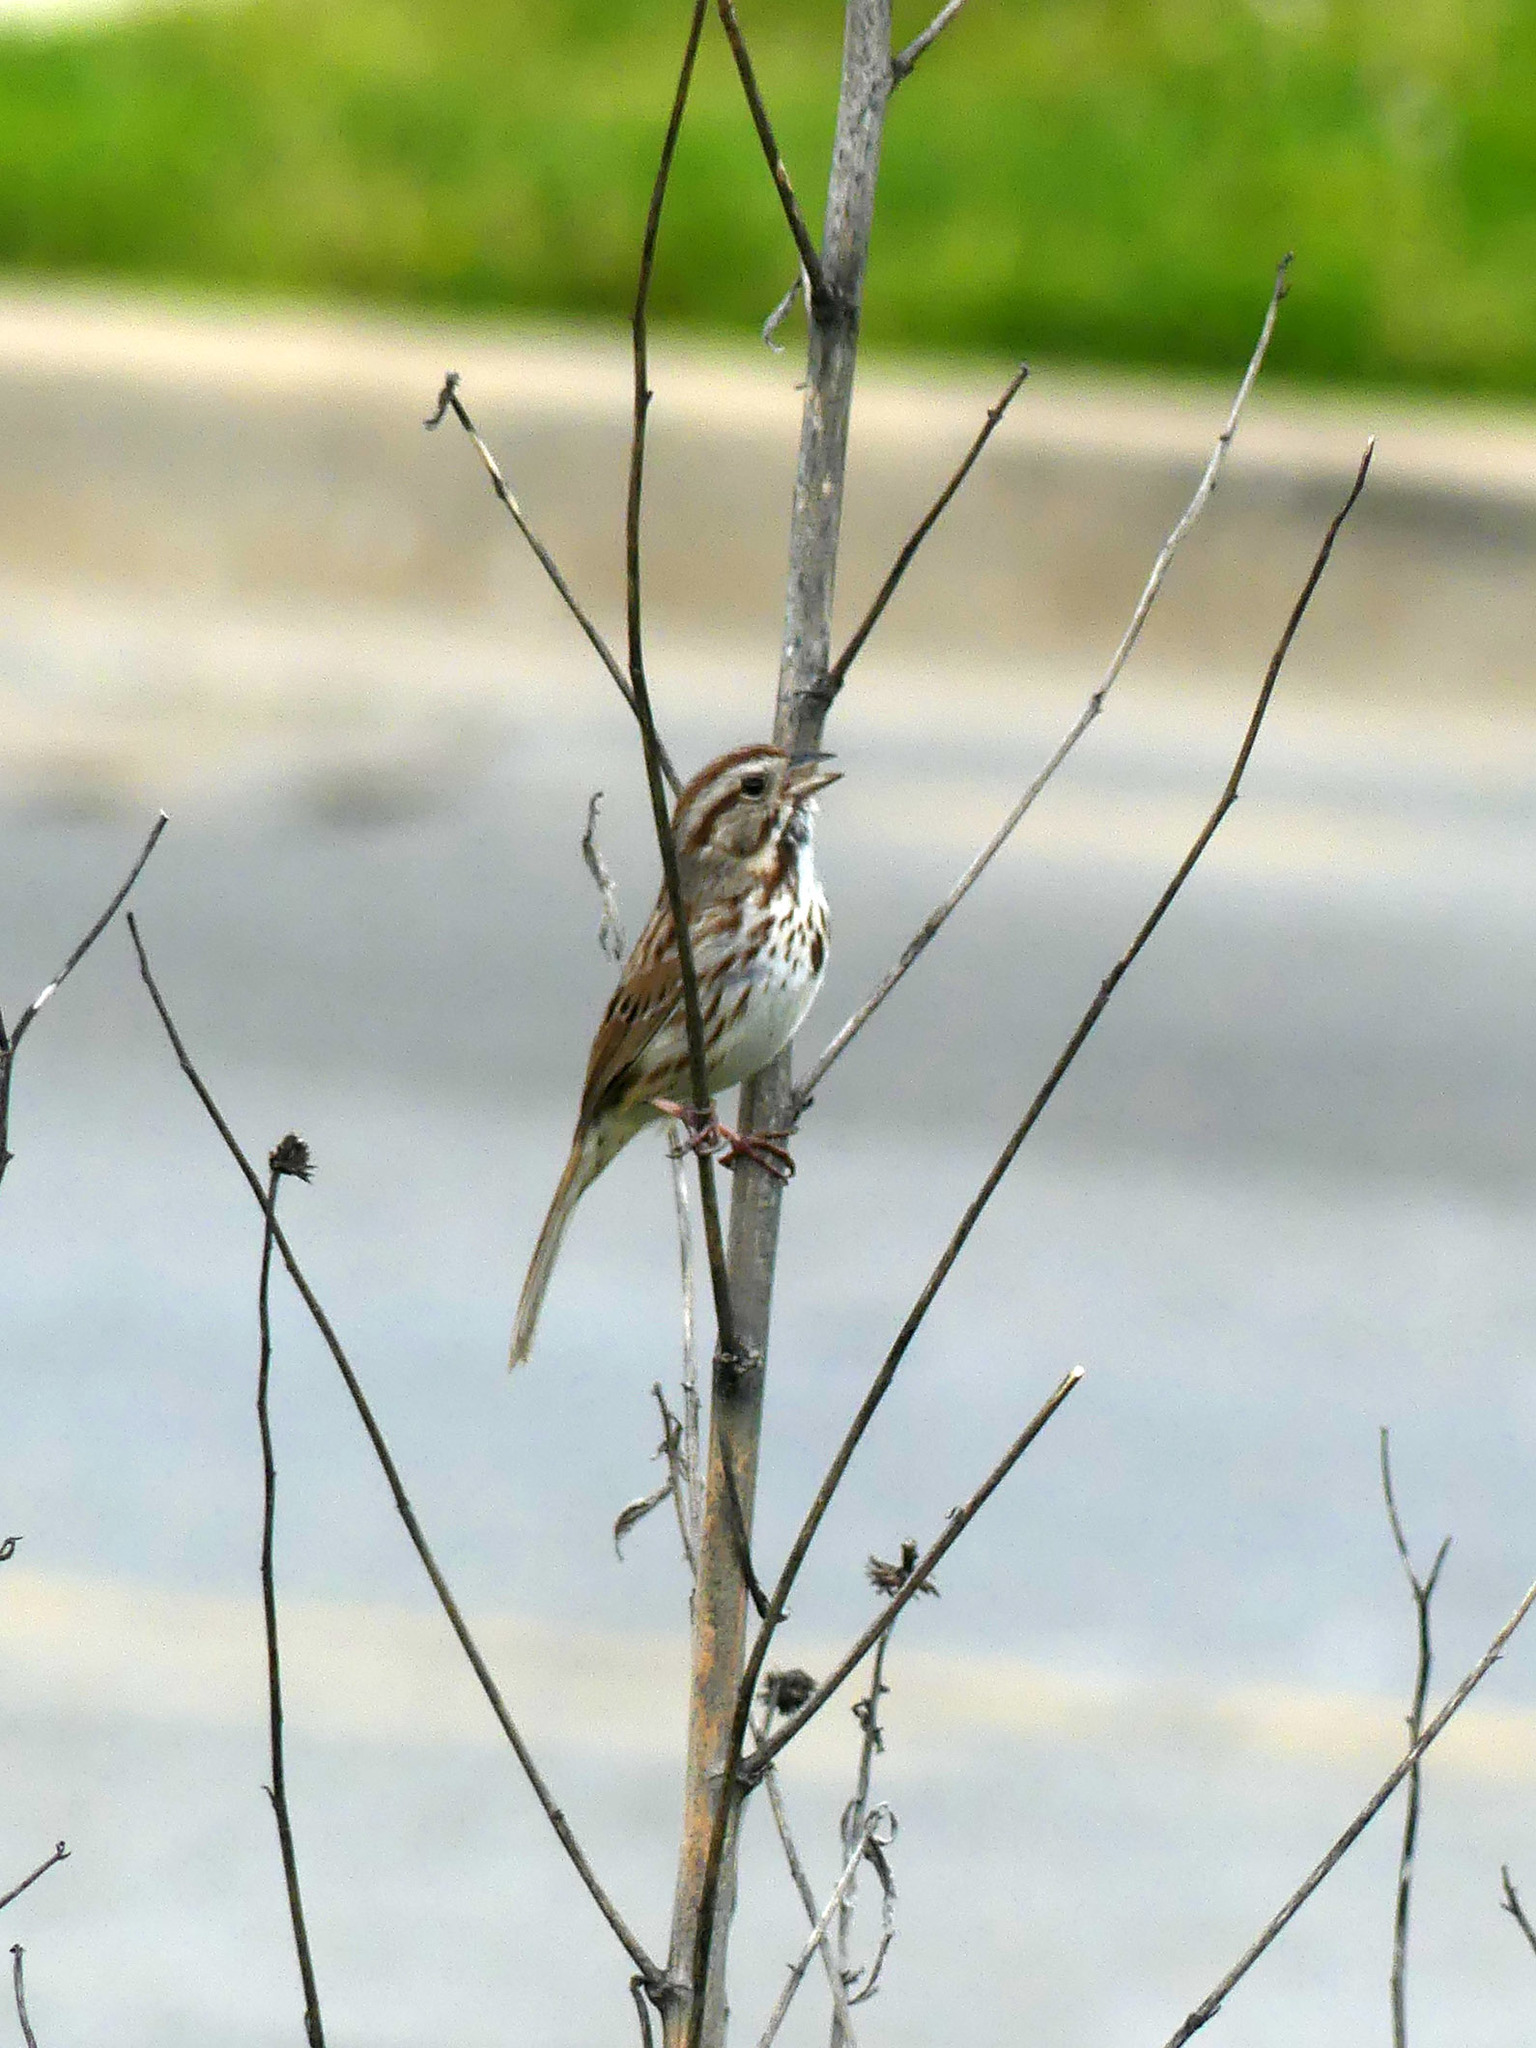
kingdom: Animalia
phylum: Chordata
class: Aves
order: Passeriformes
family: Passerellidae
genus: Melospiza
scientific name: Melospiza melodia
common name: Song sparrow
